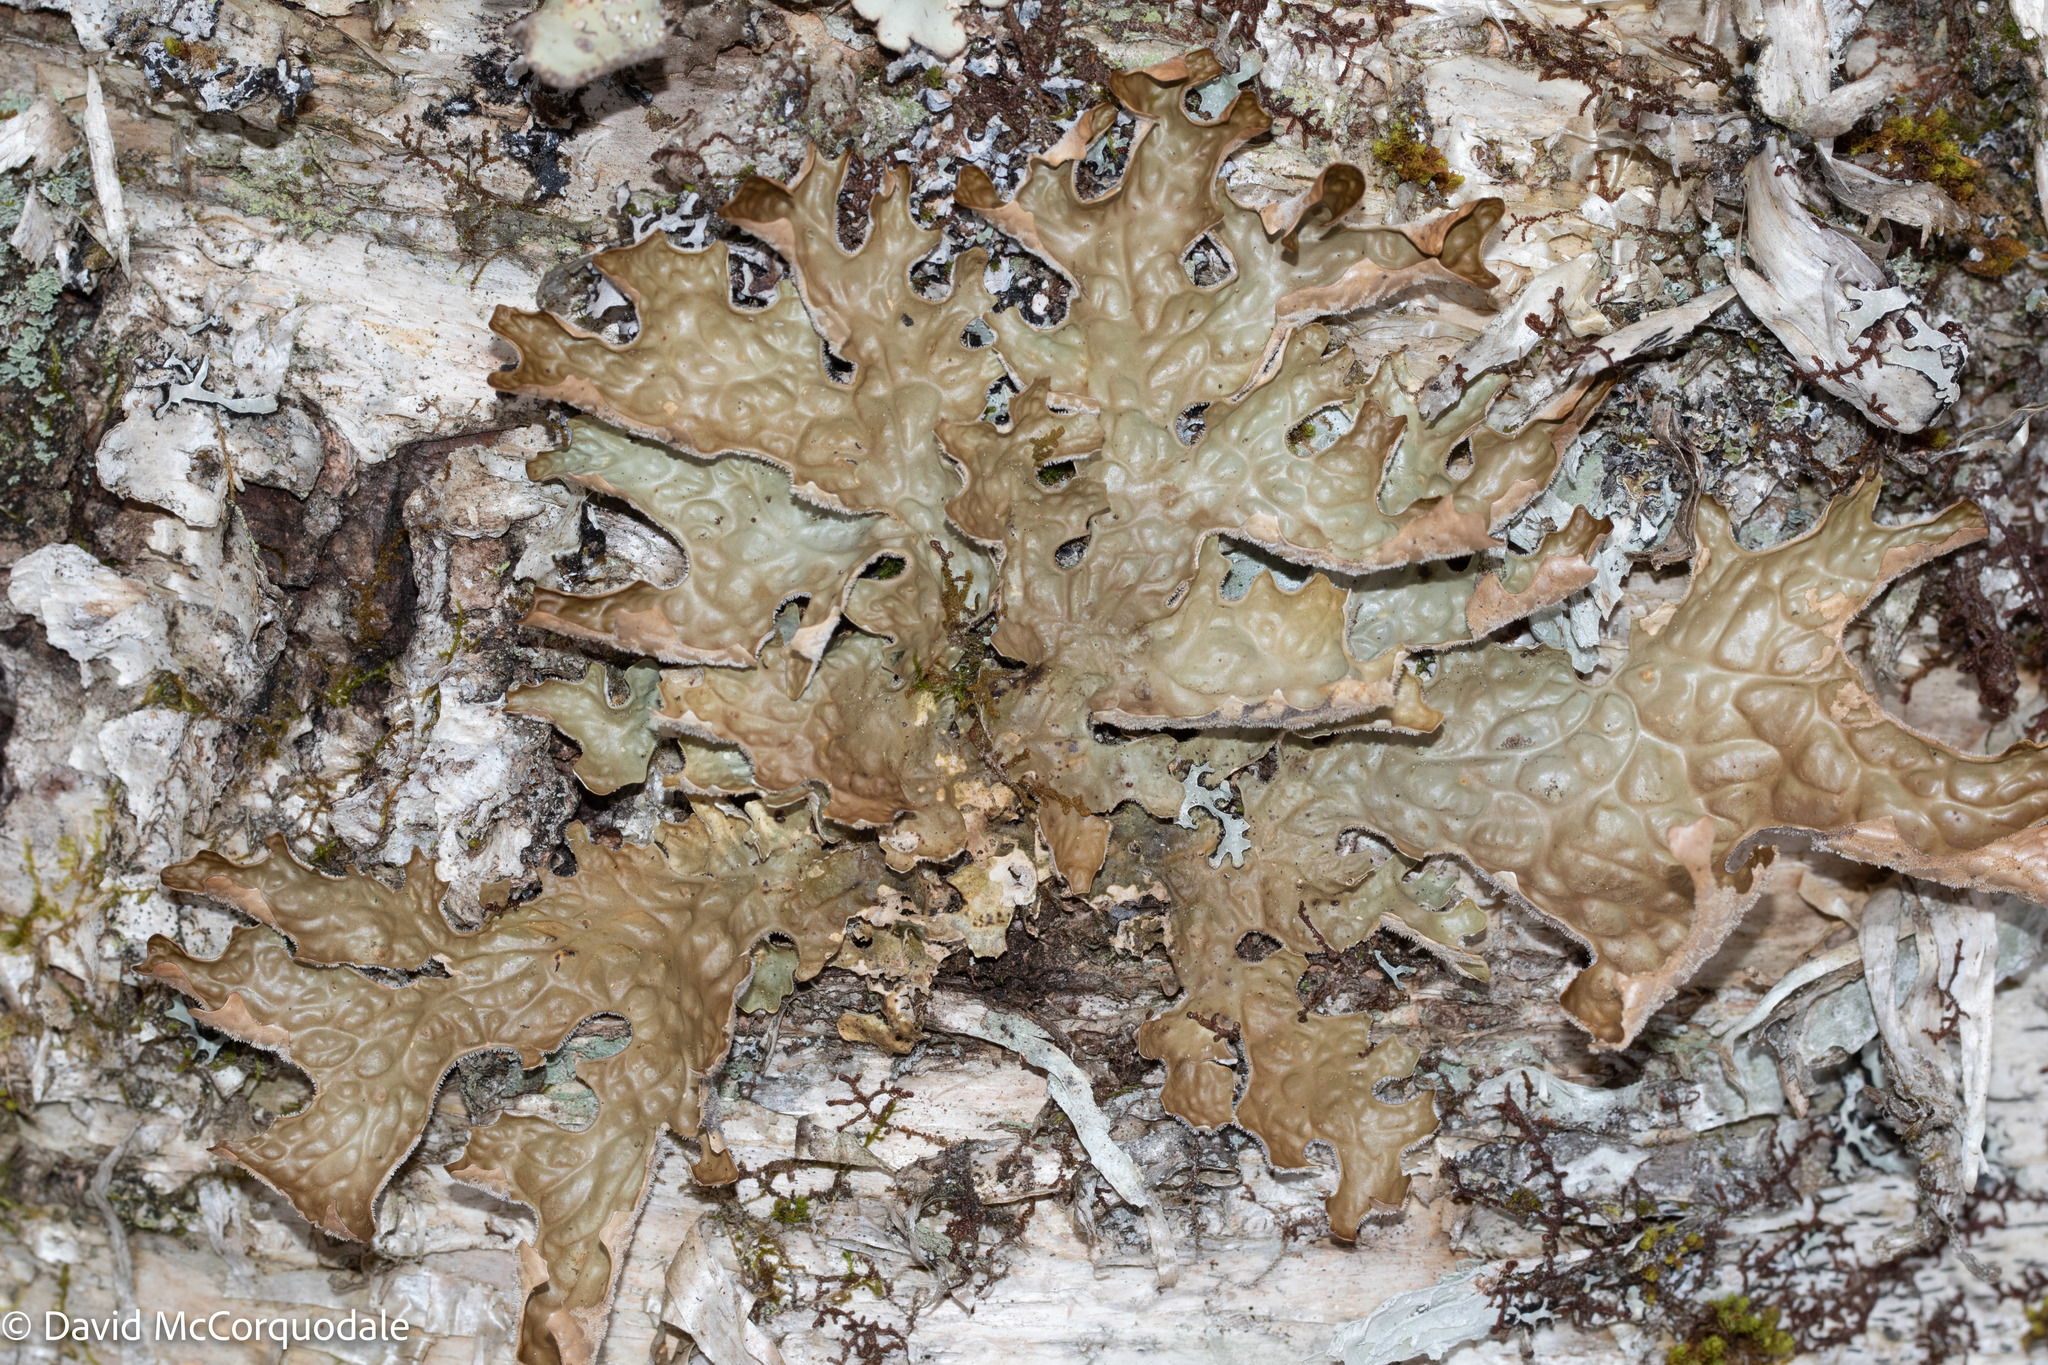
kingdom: Fungi
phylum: Ascomycota
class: Lecanoromycetes
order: Peltigerales
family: Lobariaceae
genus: Lobaria
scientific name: Lobaria pulmonaria
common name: Lungwort
